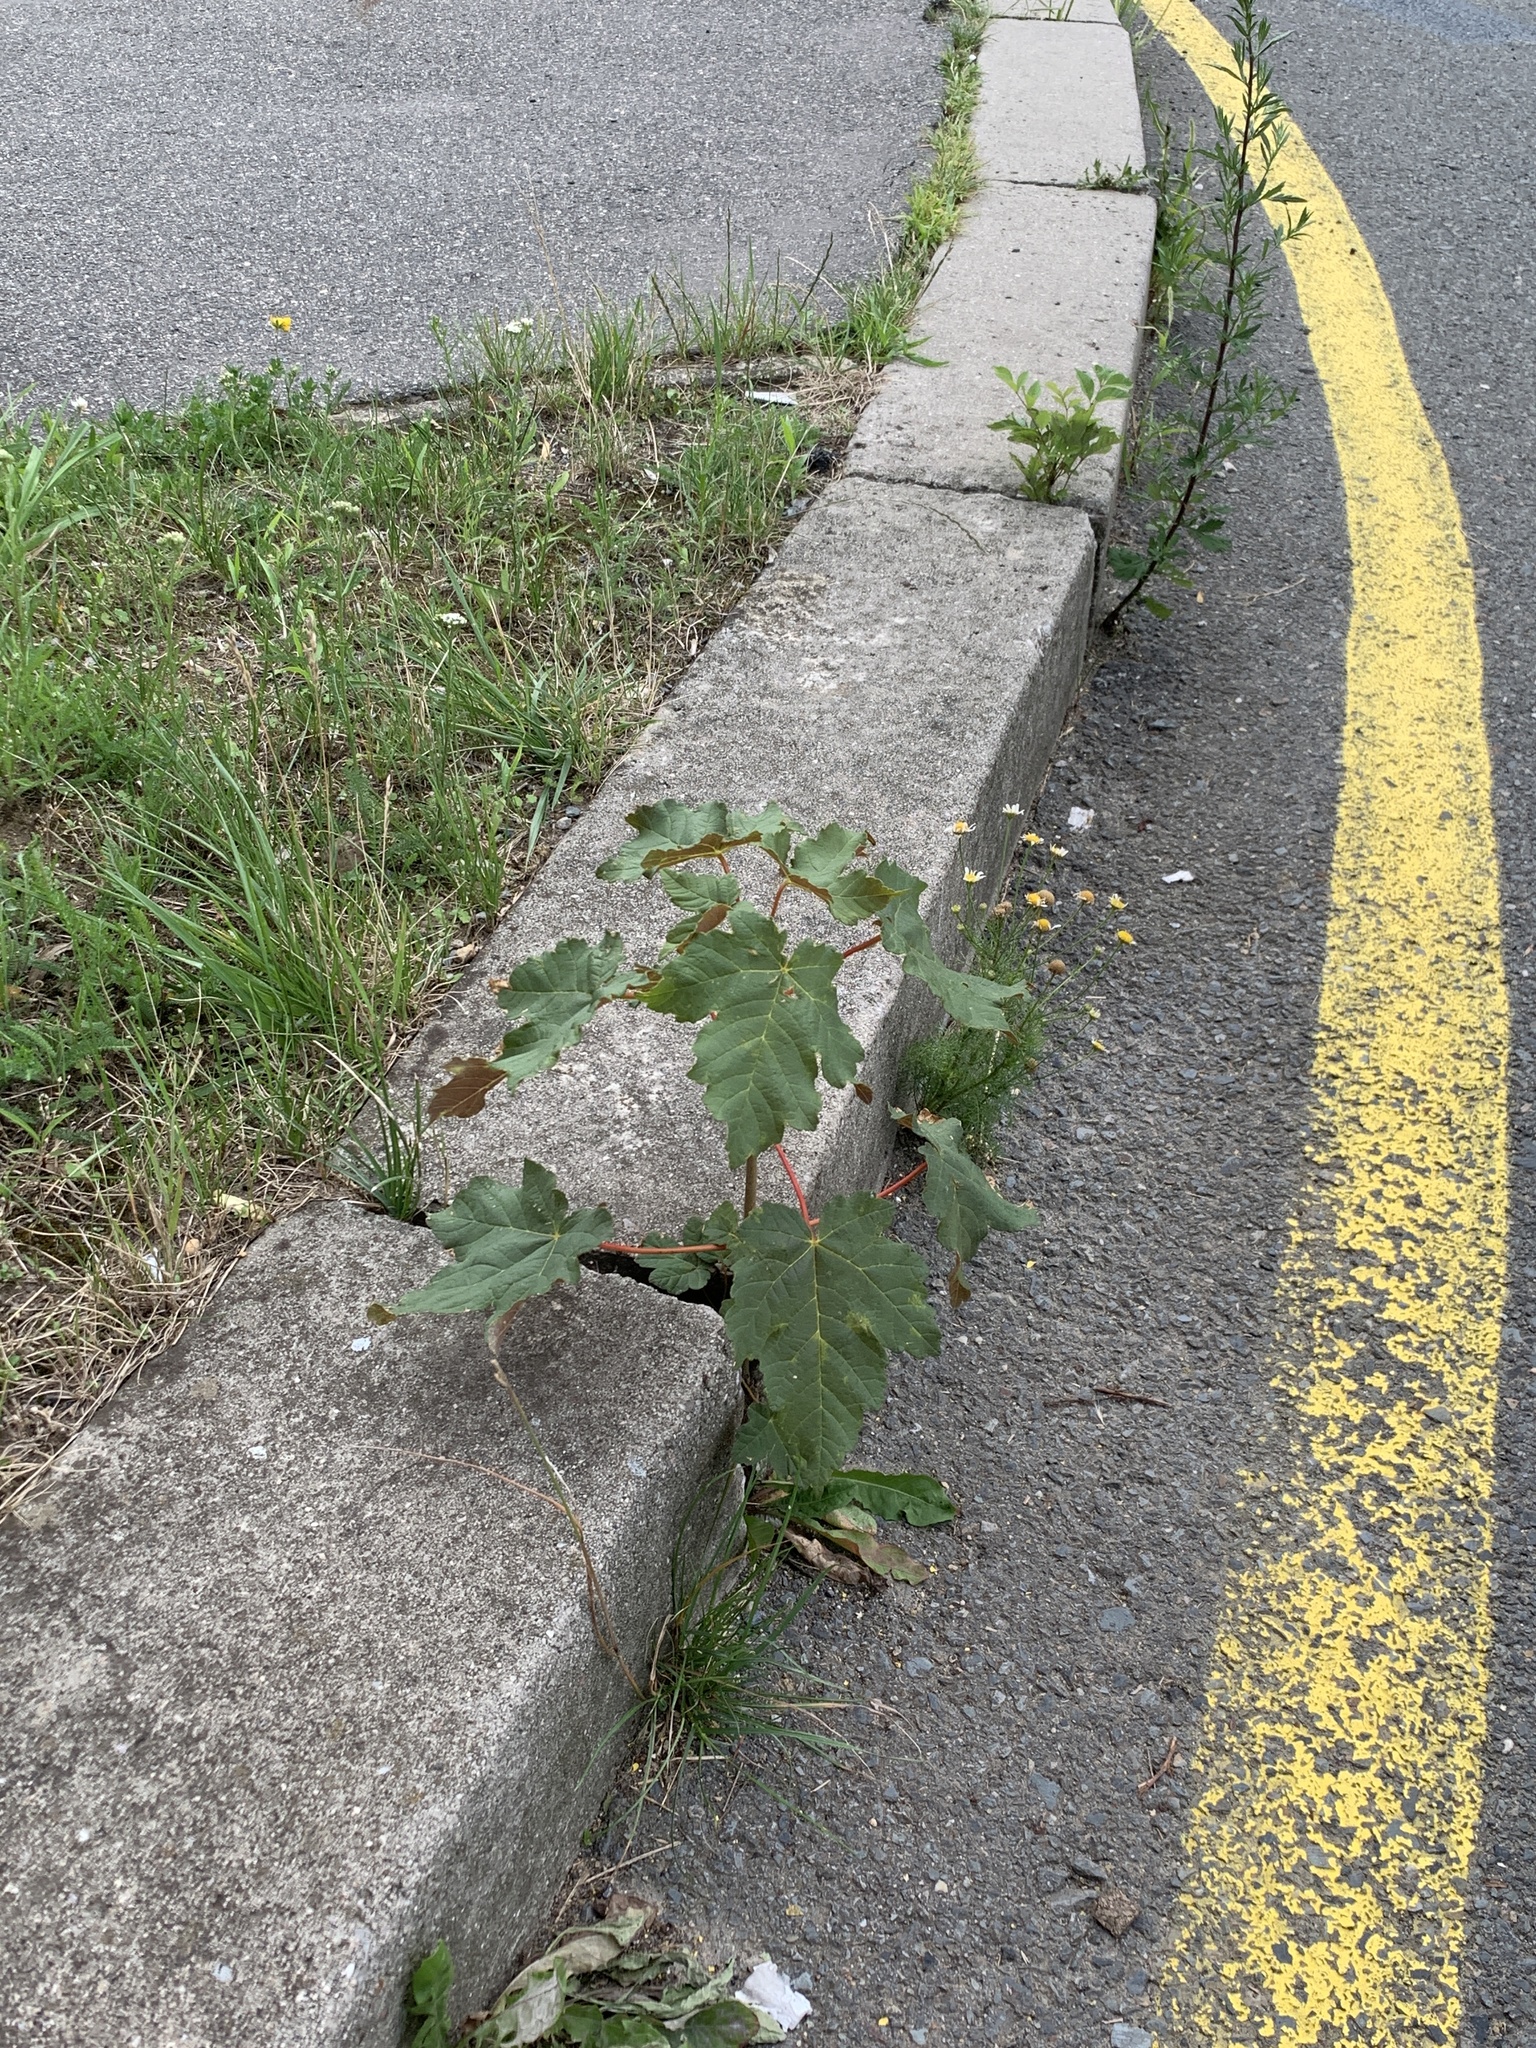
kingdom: Plantae
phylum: Tracheophyta
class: Magnoliopsida
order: Sapindales
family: Sapindaceae
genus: Acer
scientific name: Acer pseudoplatanus
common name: Sycamore
